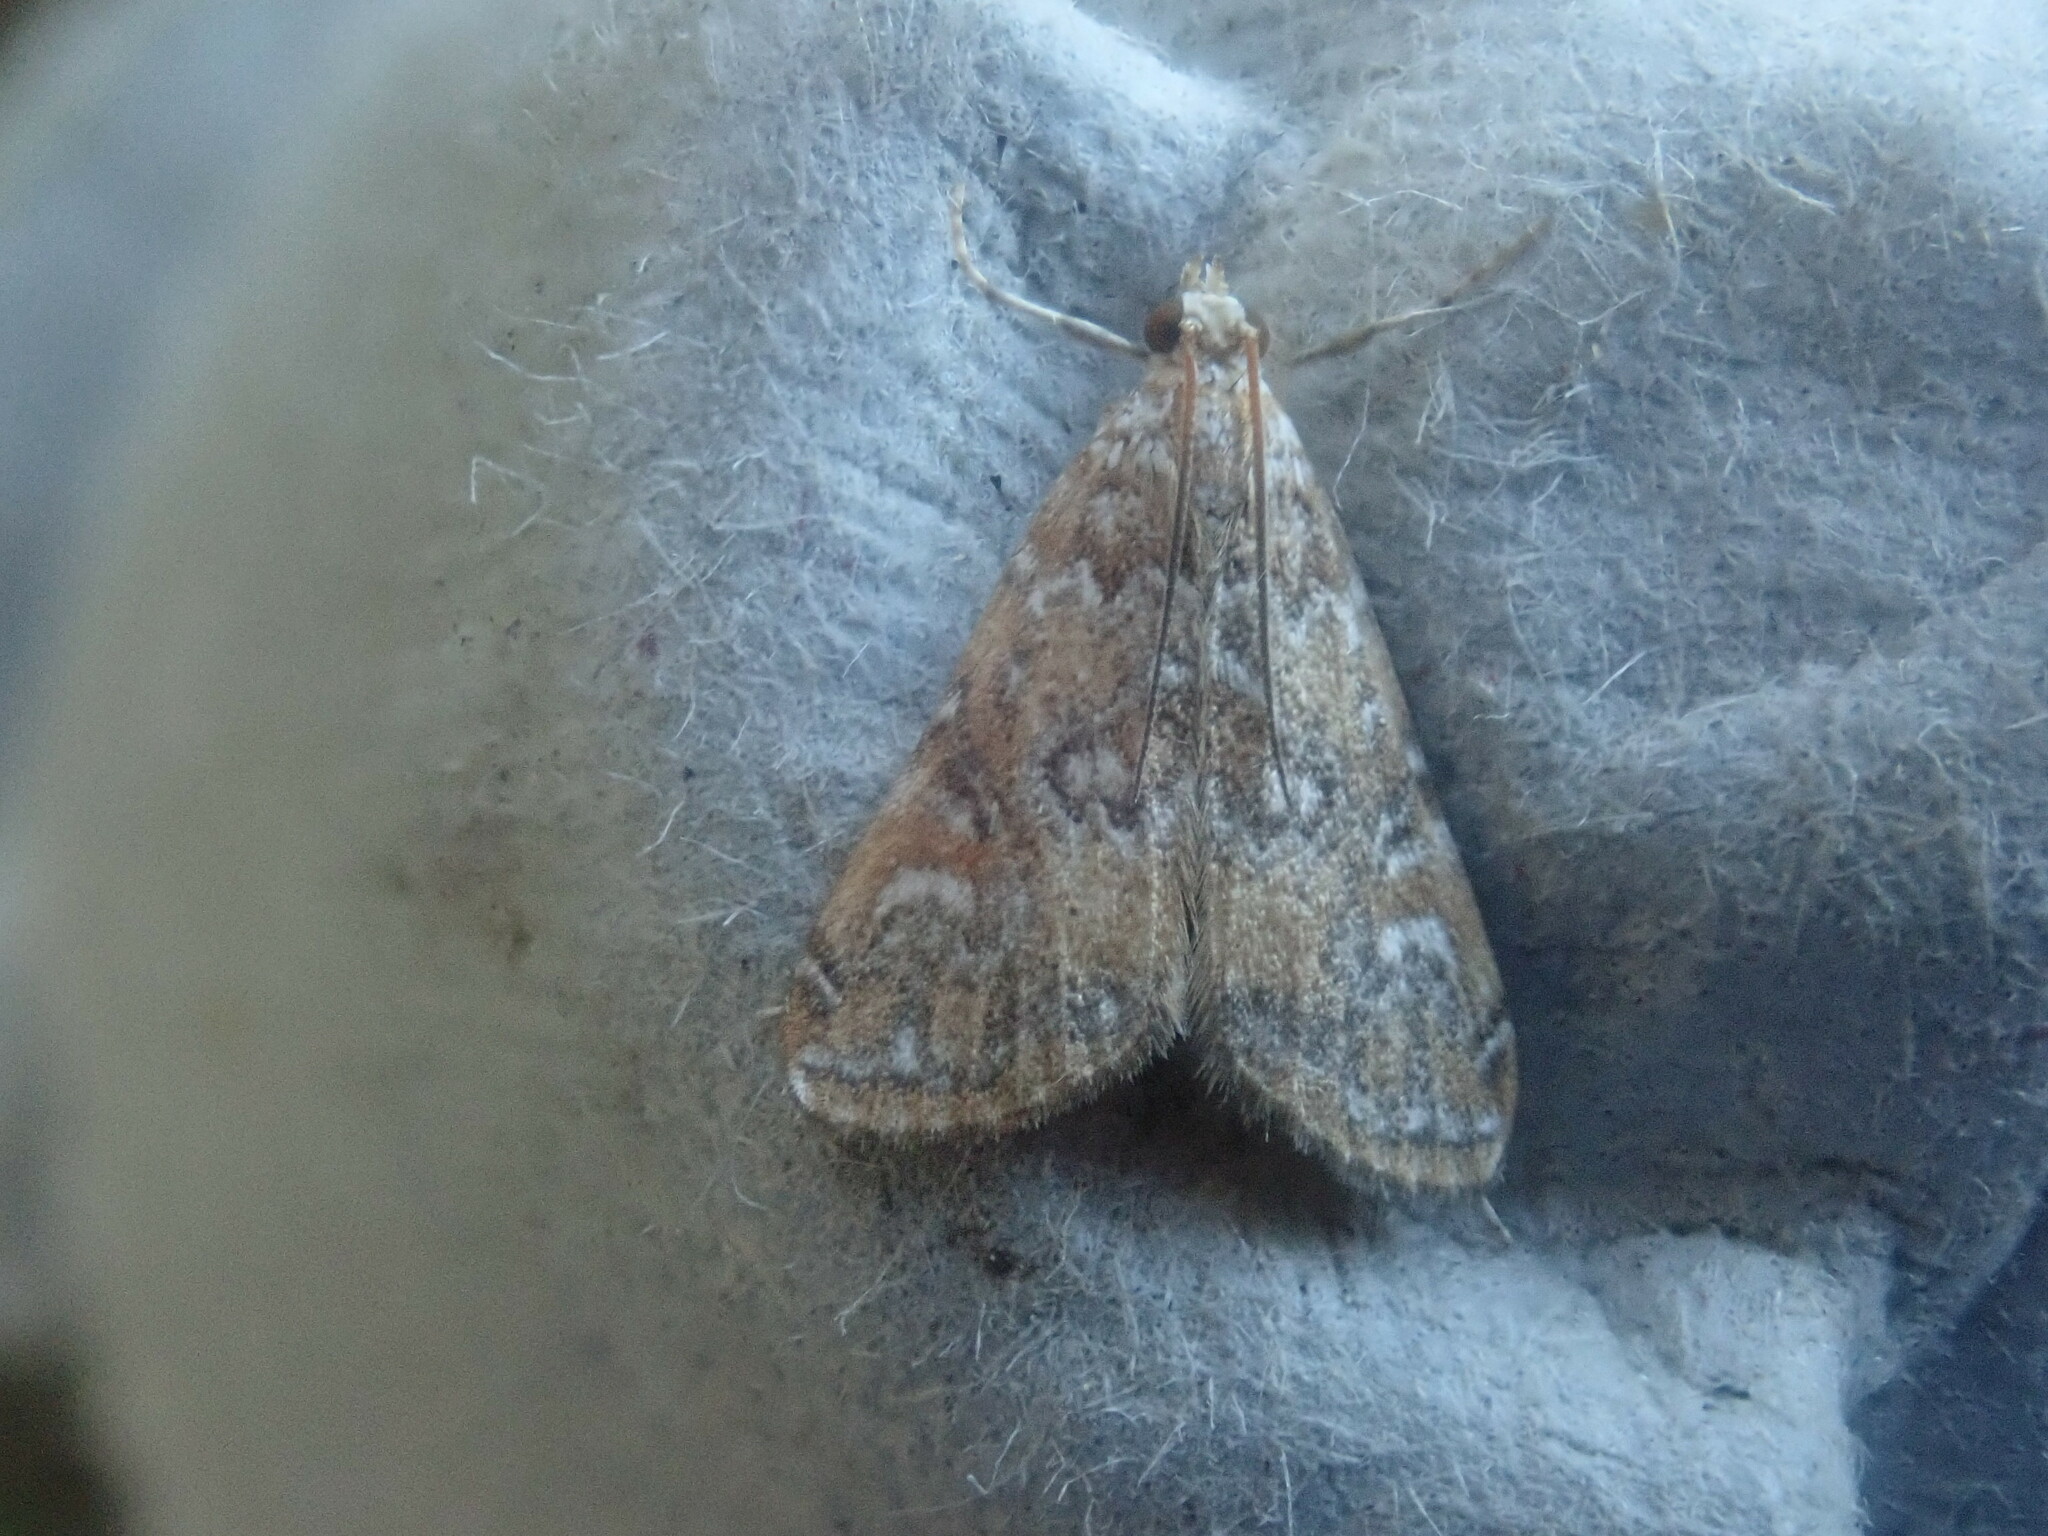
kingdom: Animalia
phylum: Arthropoda
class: Insecta
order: Lepidoptera
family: Crambidae
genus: Elophila
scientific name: Elophila gyralis
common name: Waterlily borer moth
